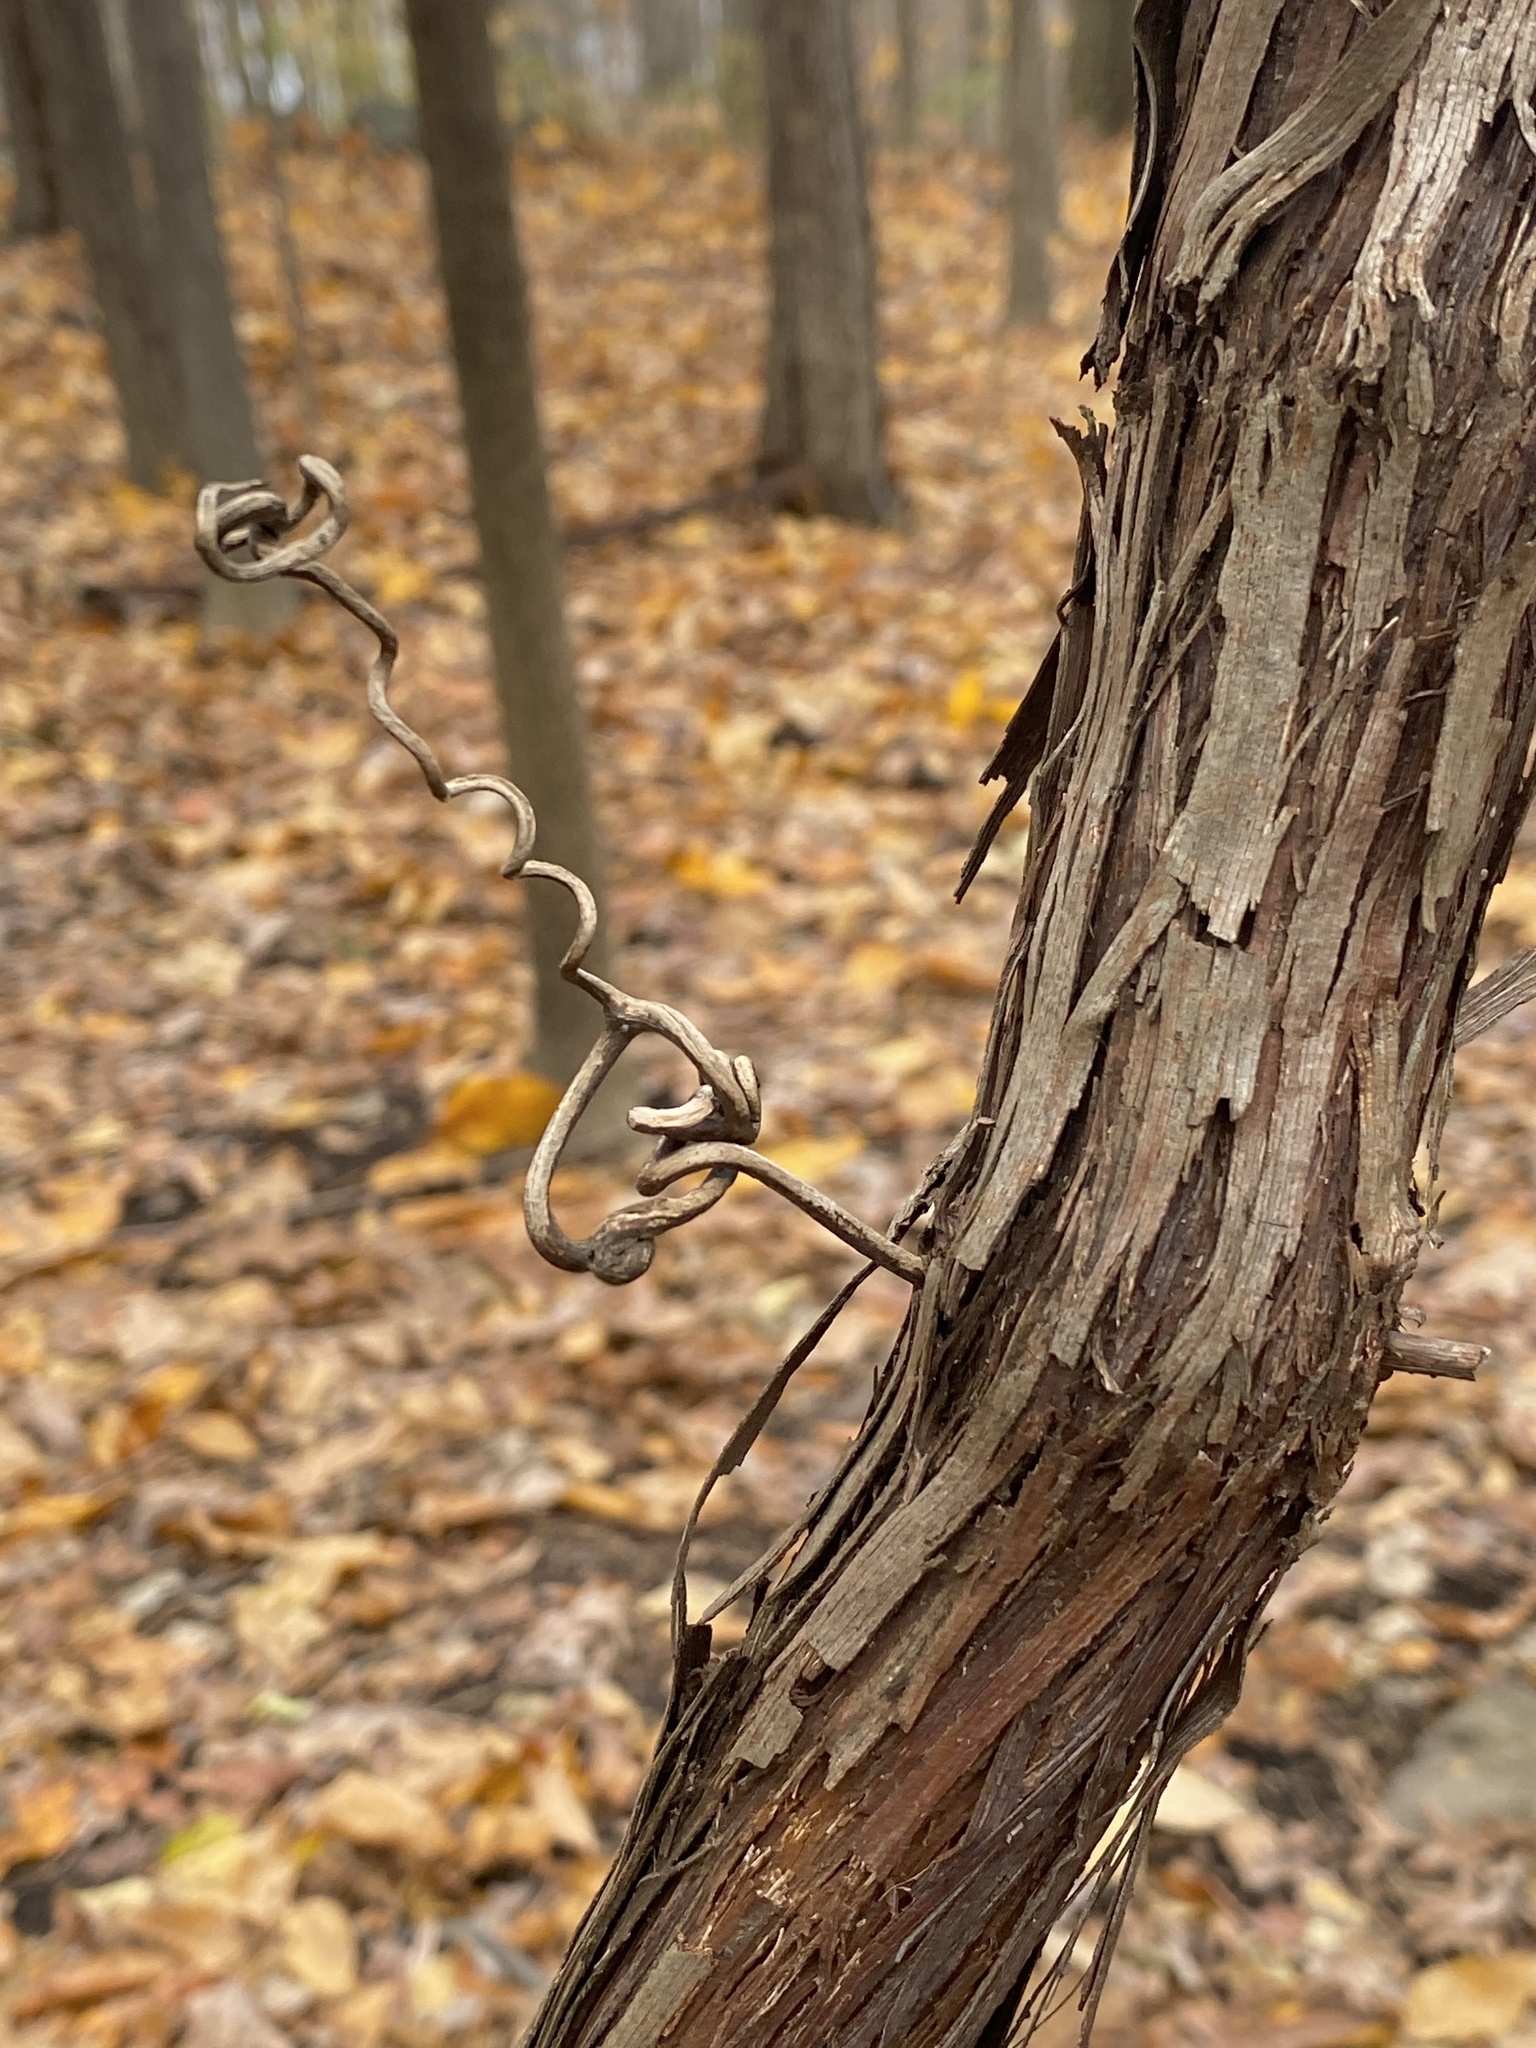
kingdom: Plantae
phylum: Tracheophyta
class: Magnoliopsida
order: Vitales
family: Vitaceae
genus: Vitis
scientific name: Vitis
